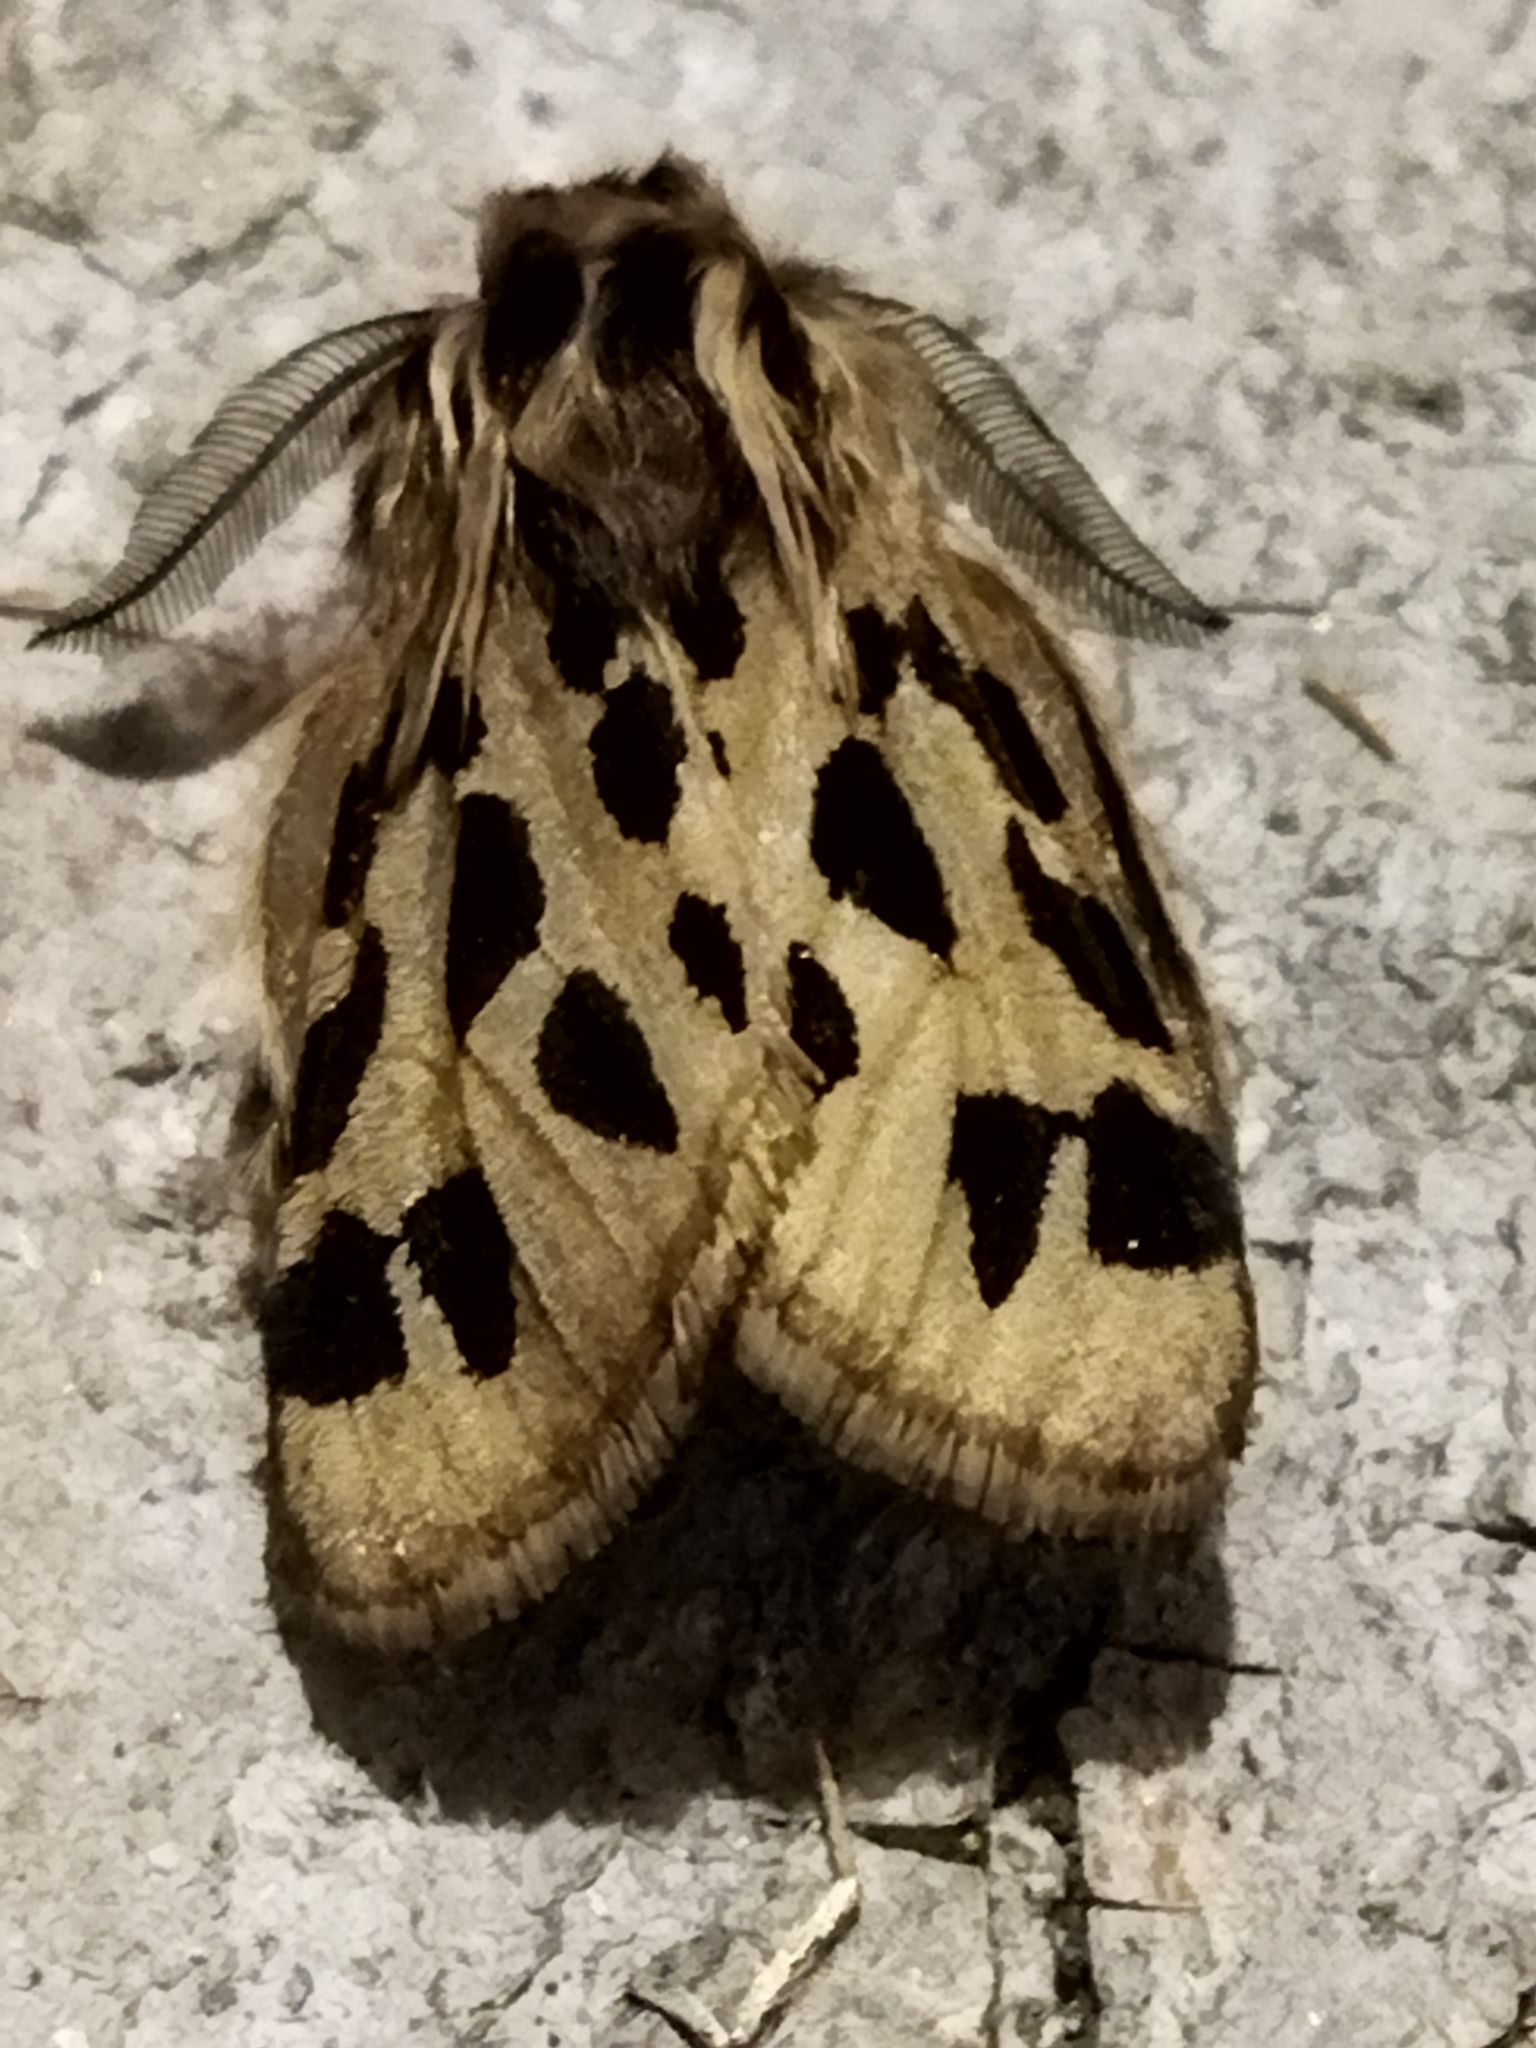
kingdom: Animalia
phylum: Arthropoda
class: Insecta
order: Lepidoptera
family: Erebidae
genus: Ocnogyna
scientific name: Ocnogyna parasita
